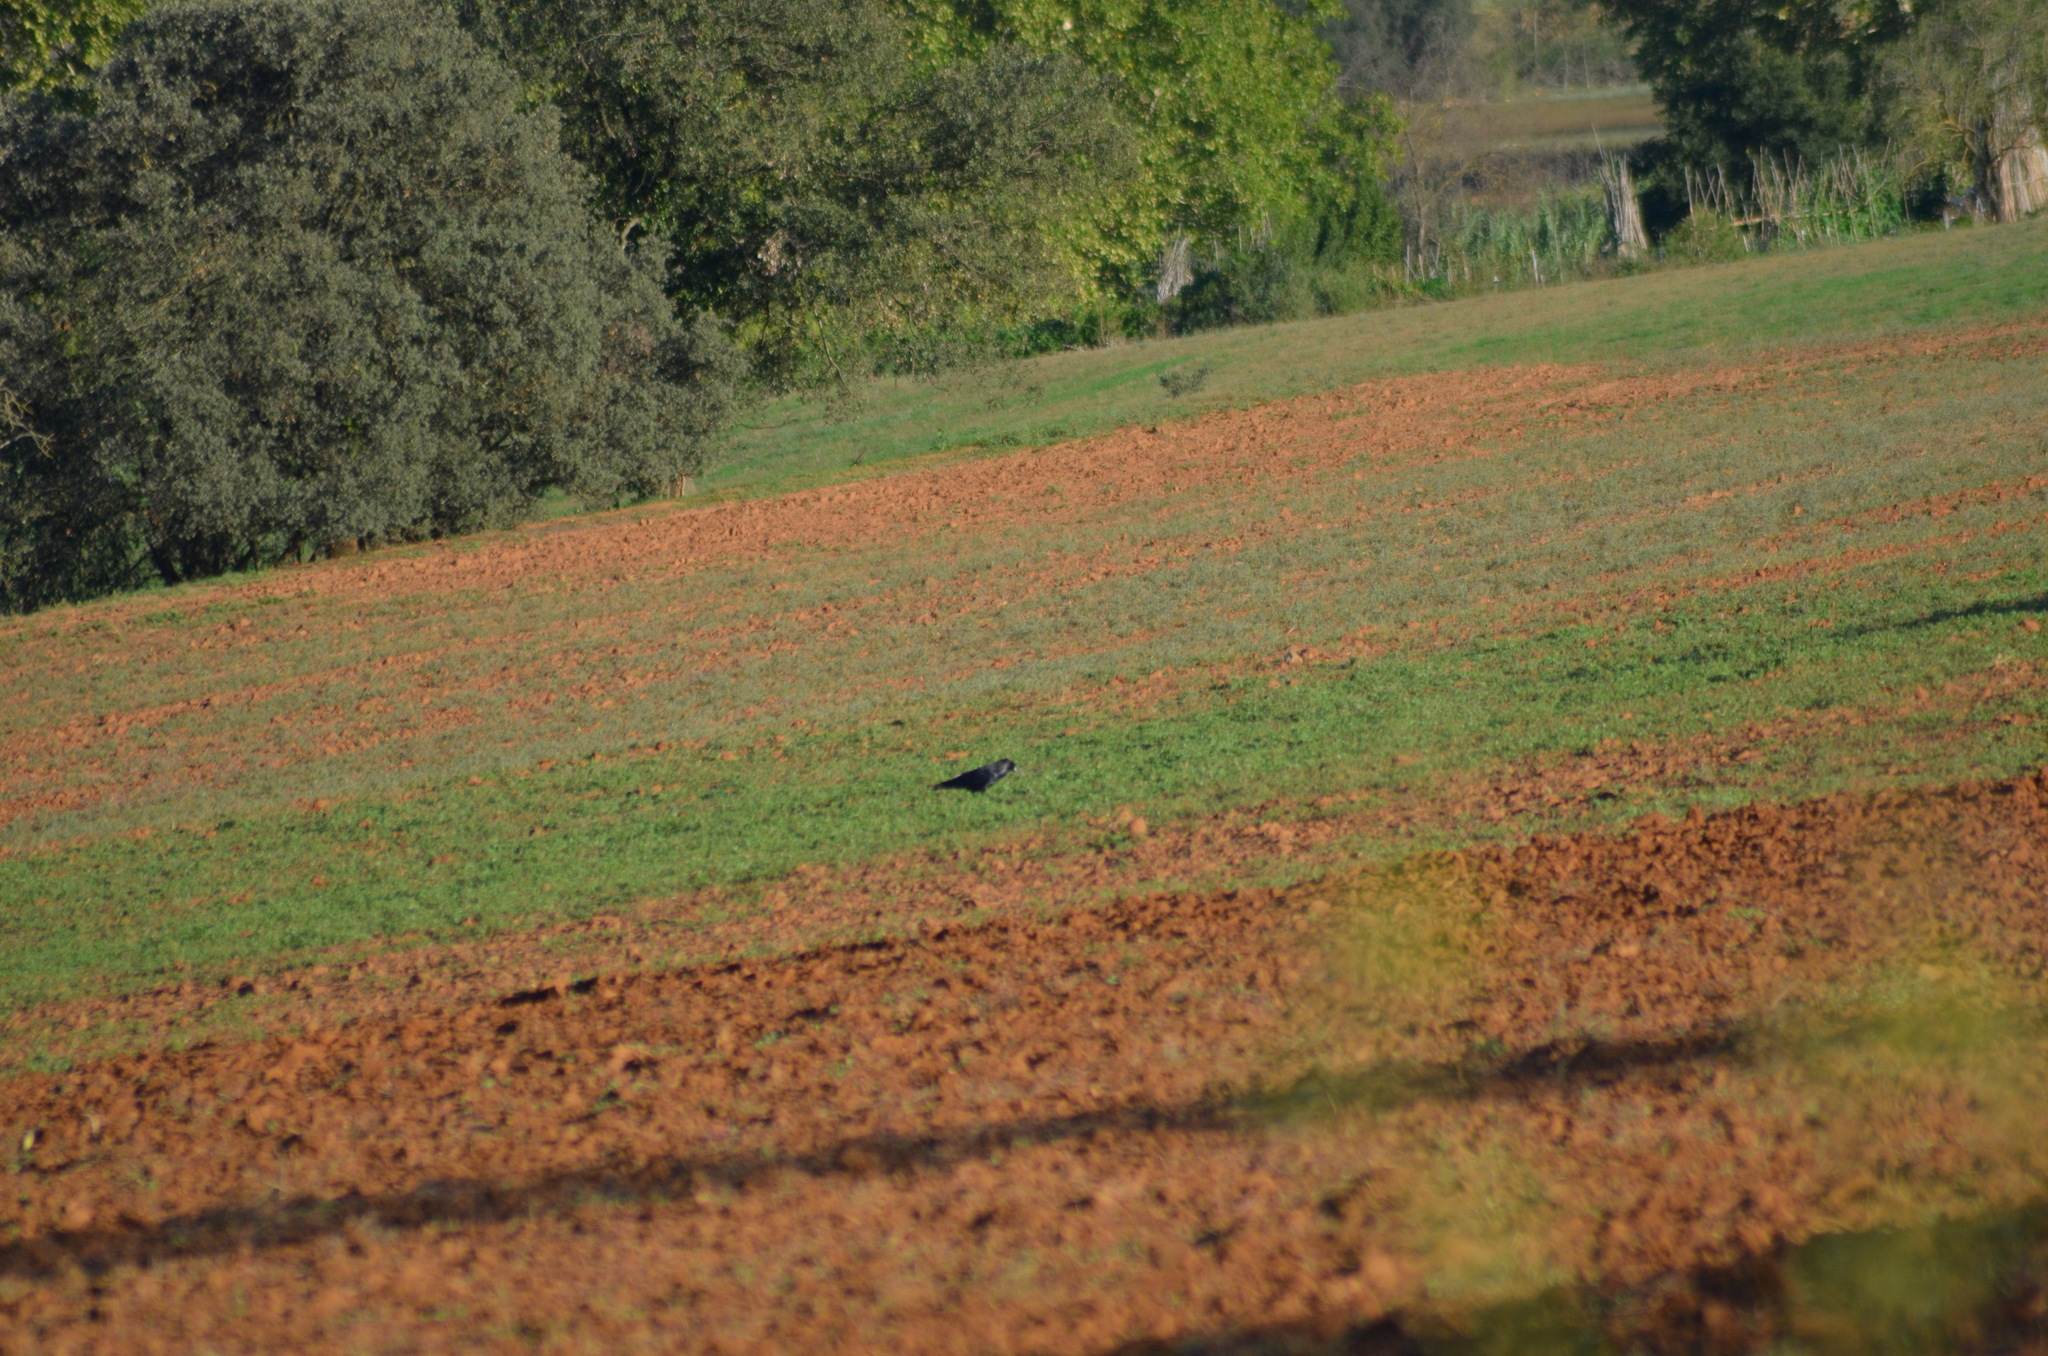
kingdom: Animalia
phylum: Chordata
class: Aves
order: Passeriformes
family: Corvidae
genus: Corvus
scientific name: Corvus corax
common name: Common raven
